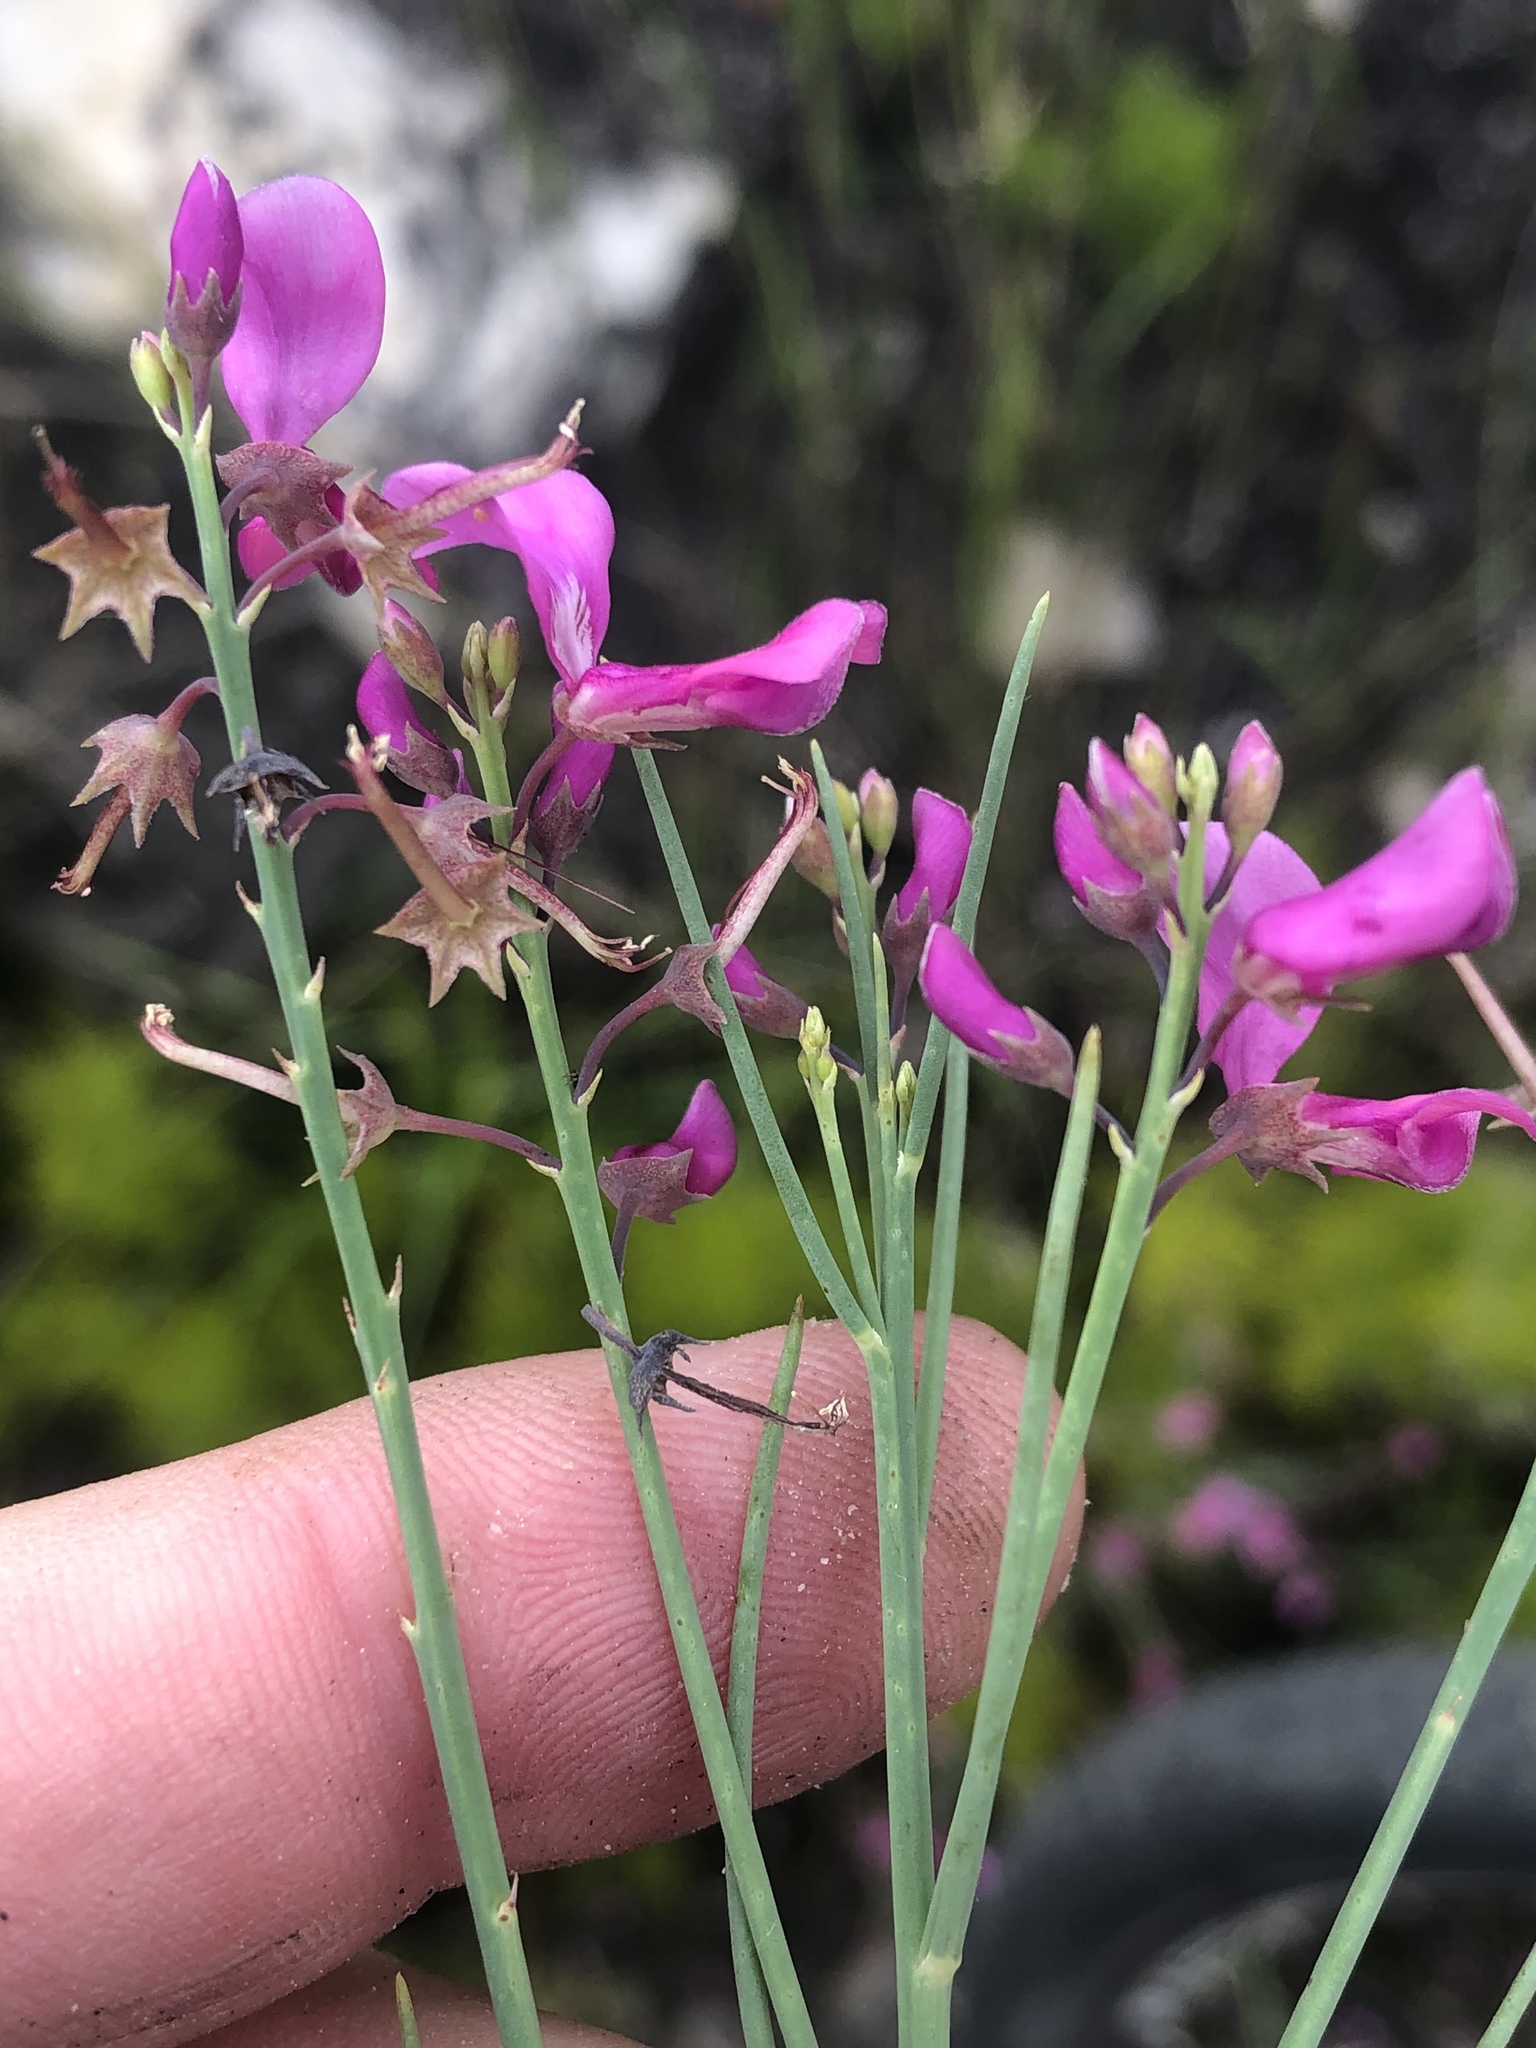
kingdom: Plantae
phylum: Tracheophyta
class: Magnoliopsida
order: Fabales
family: Fabaceae
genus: Indigofera
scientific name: Indigofera filifolia
